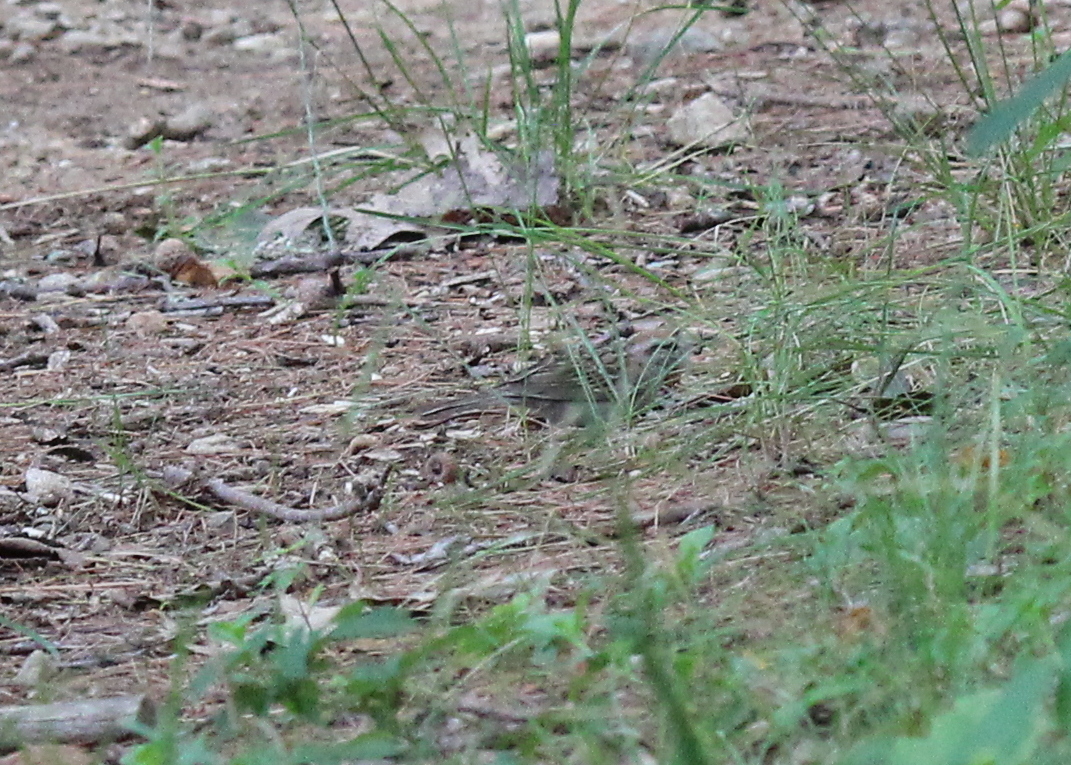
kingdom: Animalia
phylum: Chordata
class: Aves
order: Passeriformes
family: Passerellidae
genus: Spizella
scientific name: Spizella passerina
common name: Chipping sparrow
